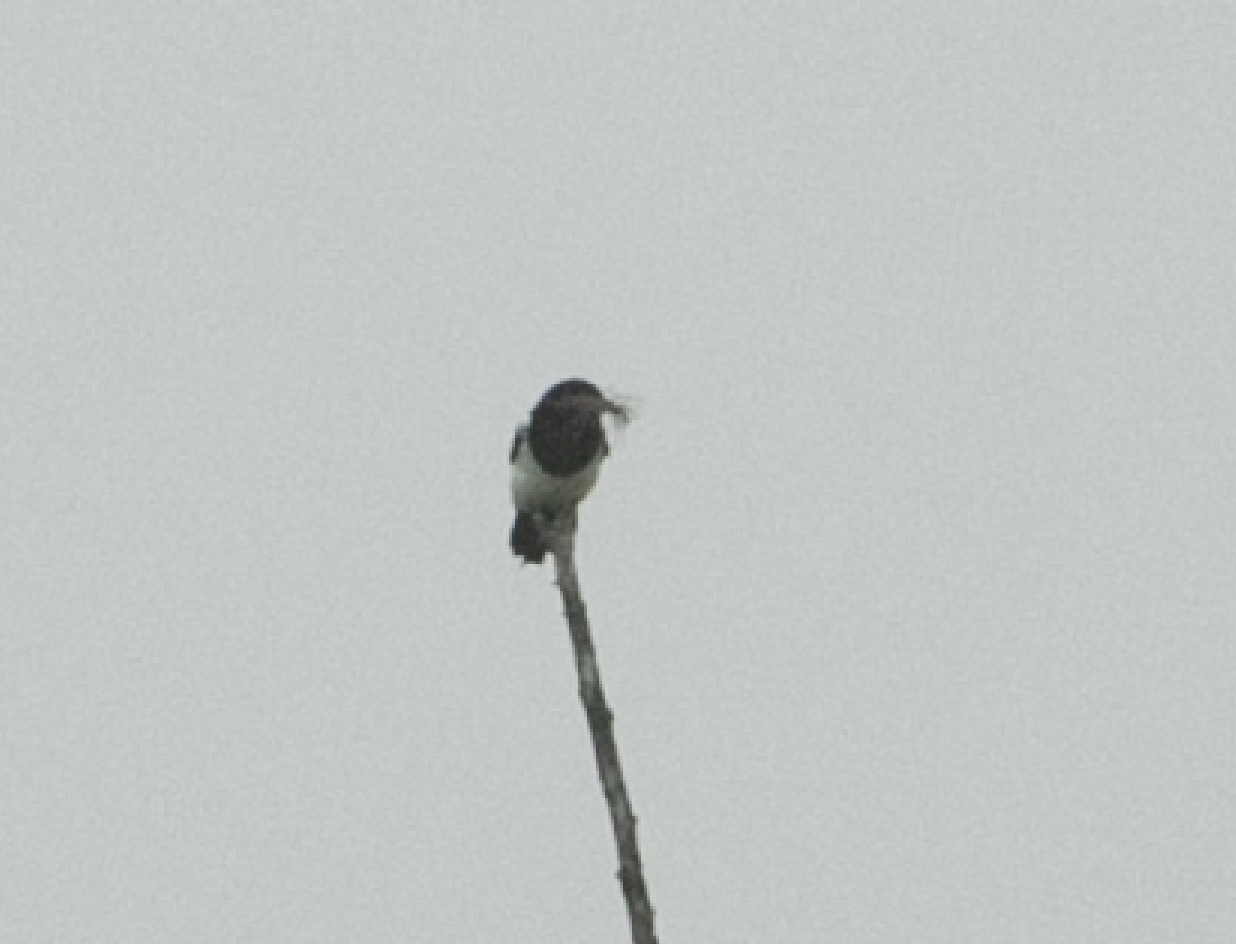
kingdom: Animalia
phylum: Chordata
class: Aves
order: Passeriformes
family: Corvidae
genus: Pica
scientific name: Pica pica
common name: Eurasian magpie
